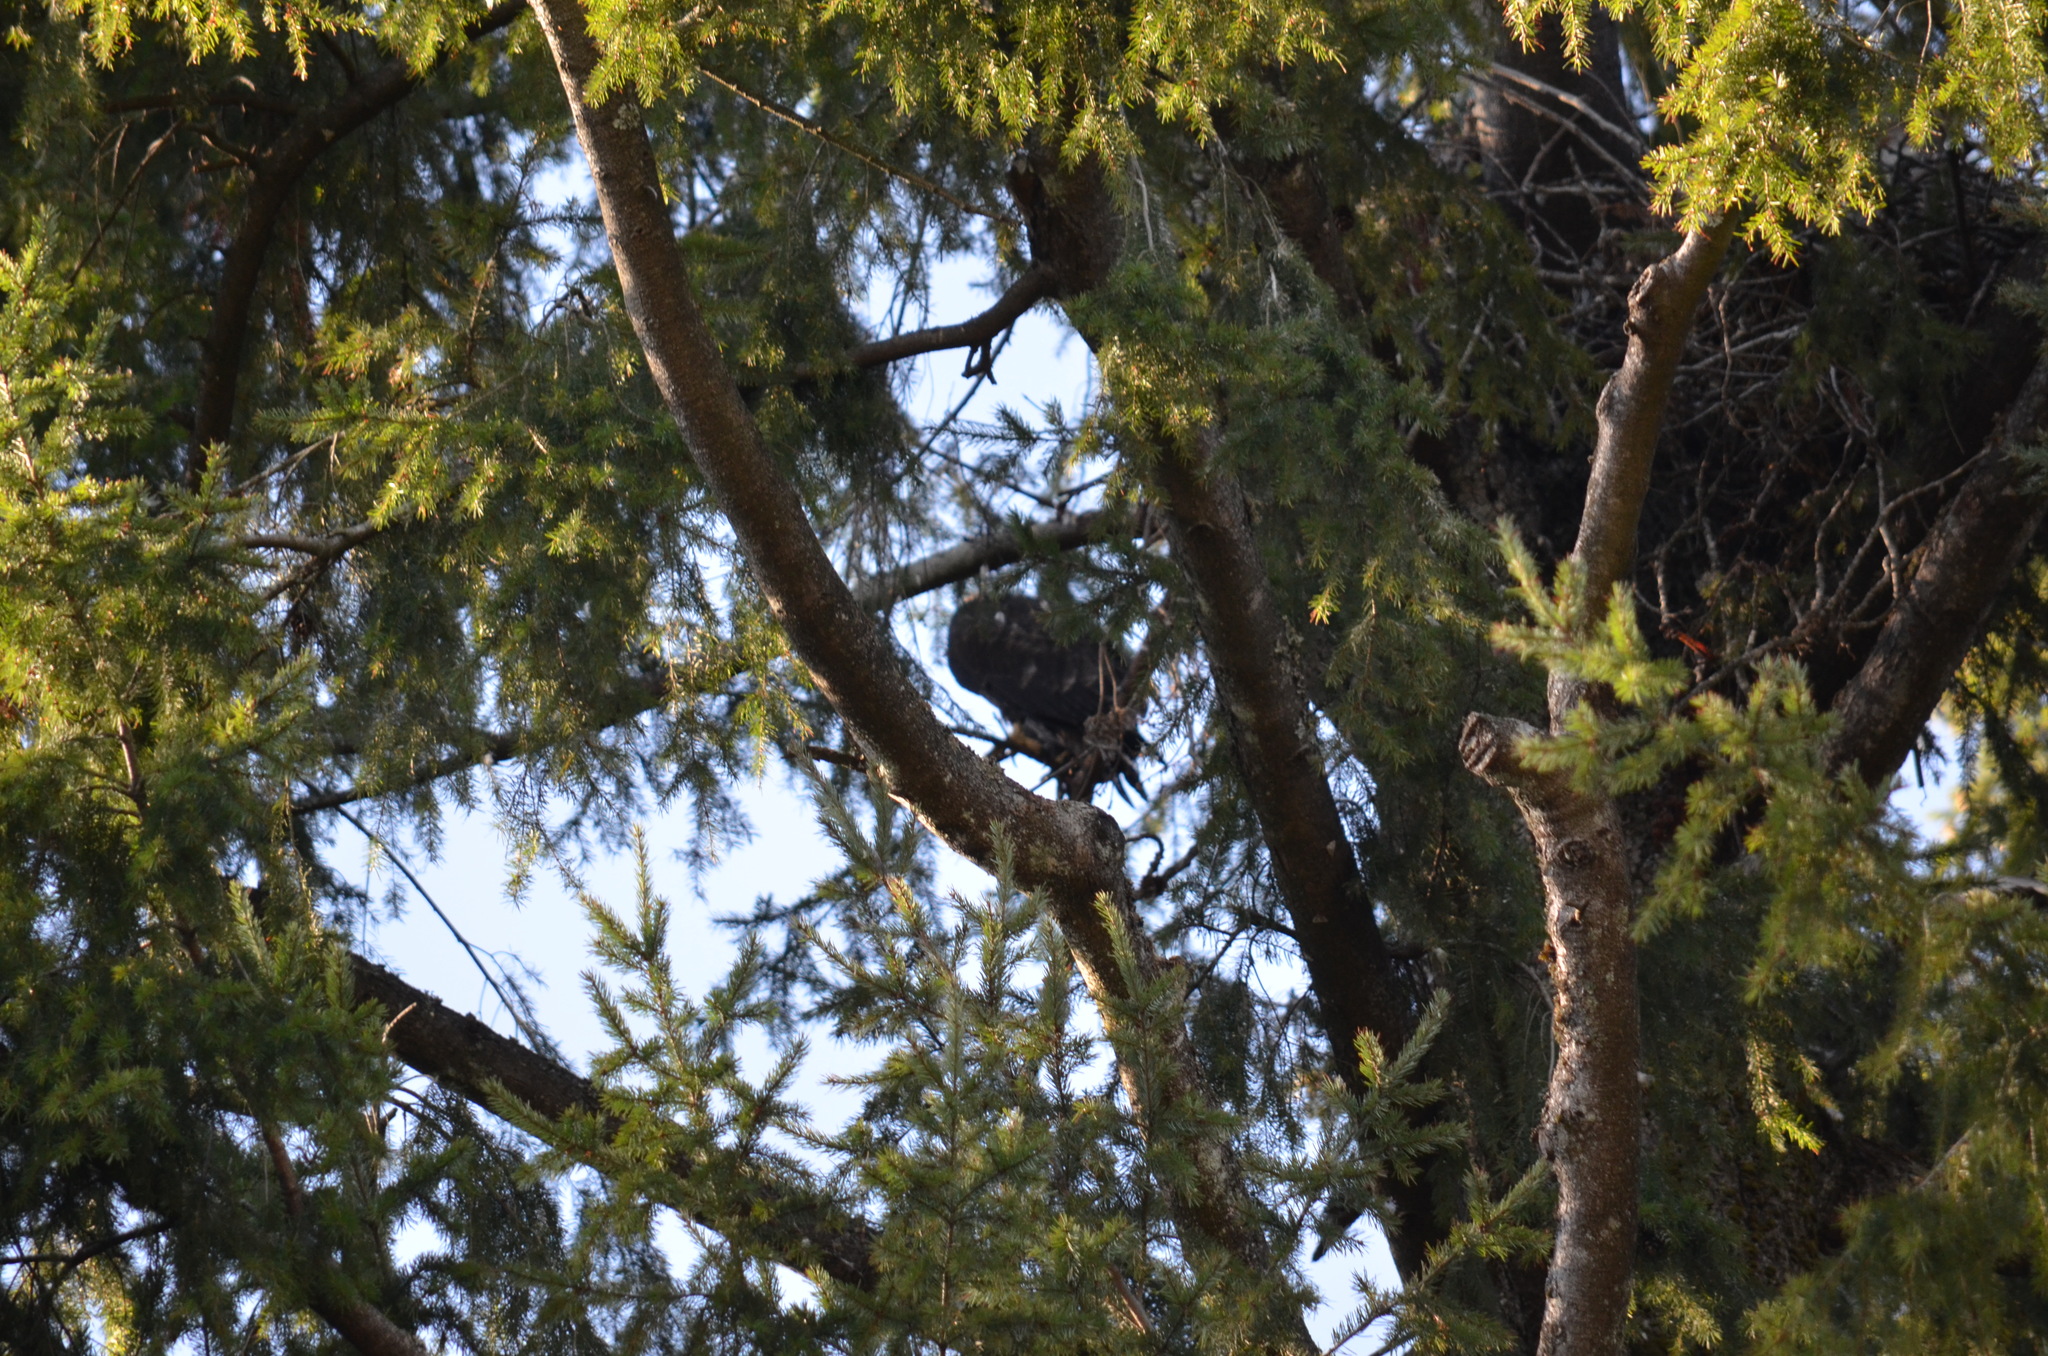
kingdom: Animalia
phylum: Chordata
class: Aves
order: Accipitriformes
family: Accipitridae
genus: Haliaeetus
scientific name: Haliaeetus leucocephalus
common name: Bald eagle
